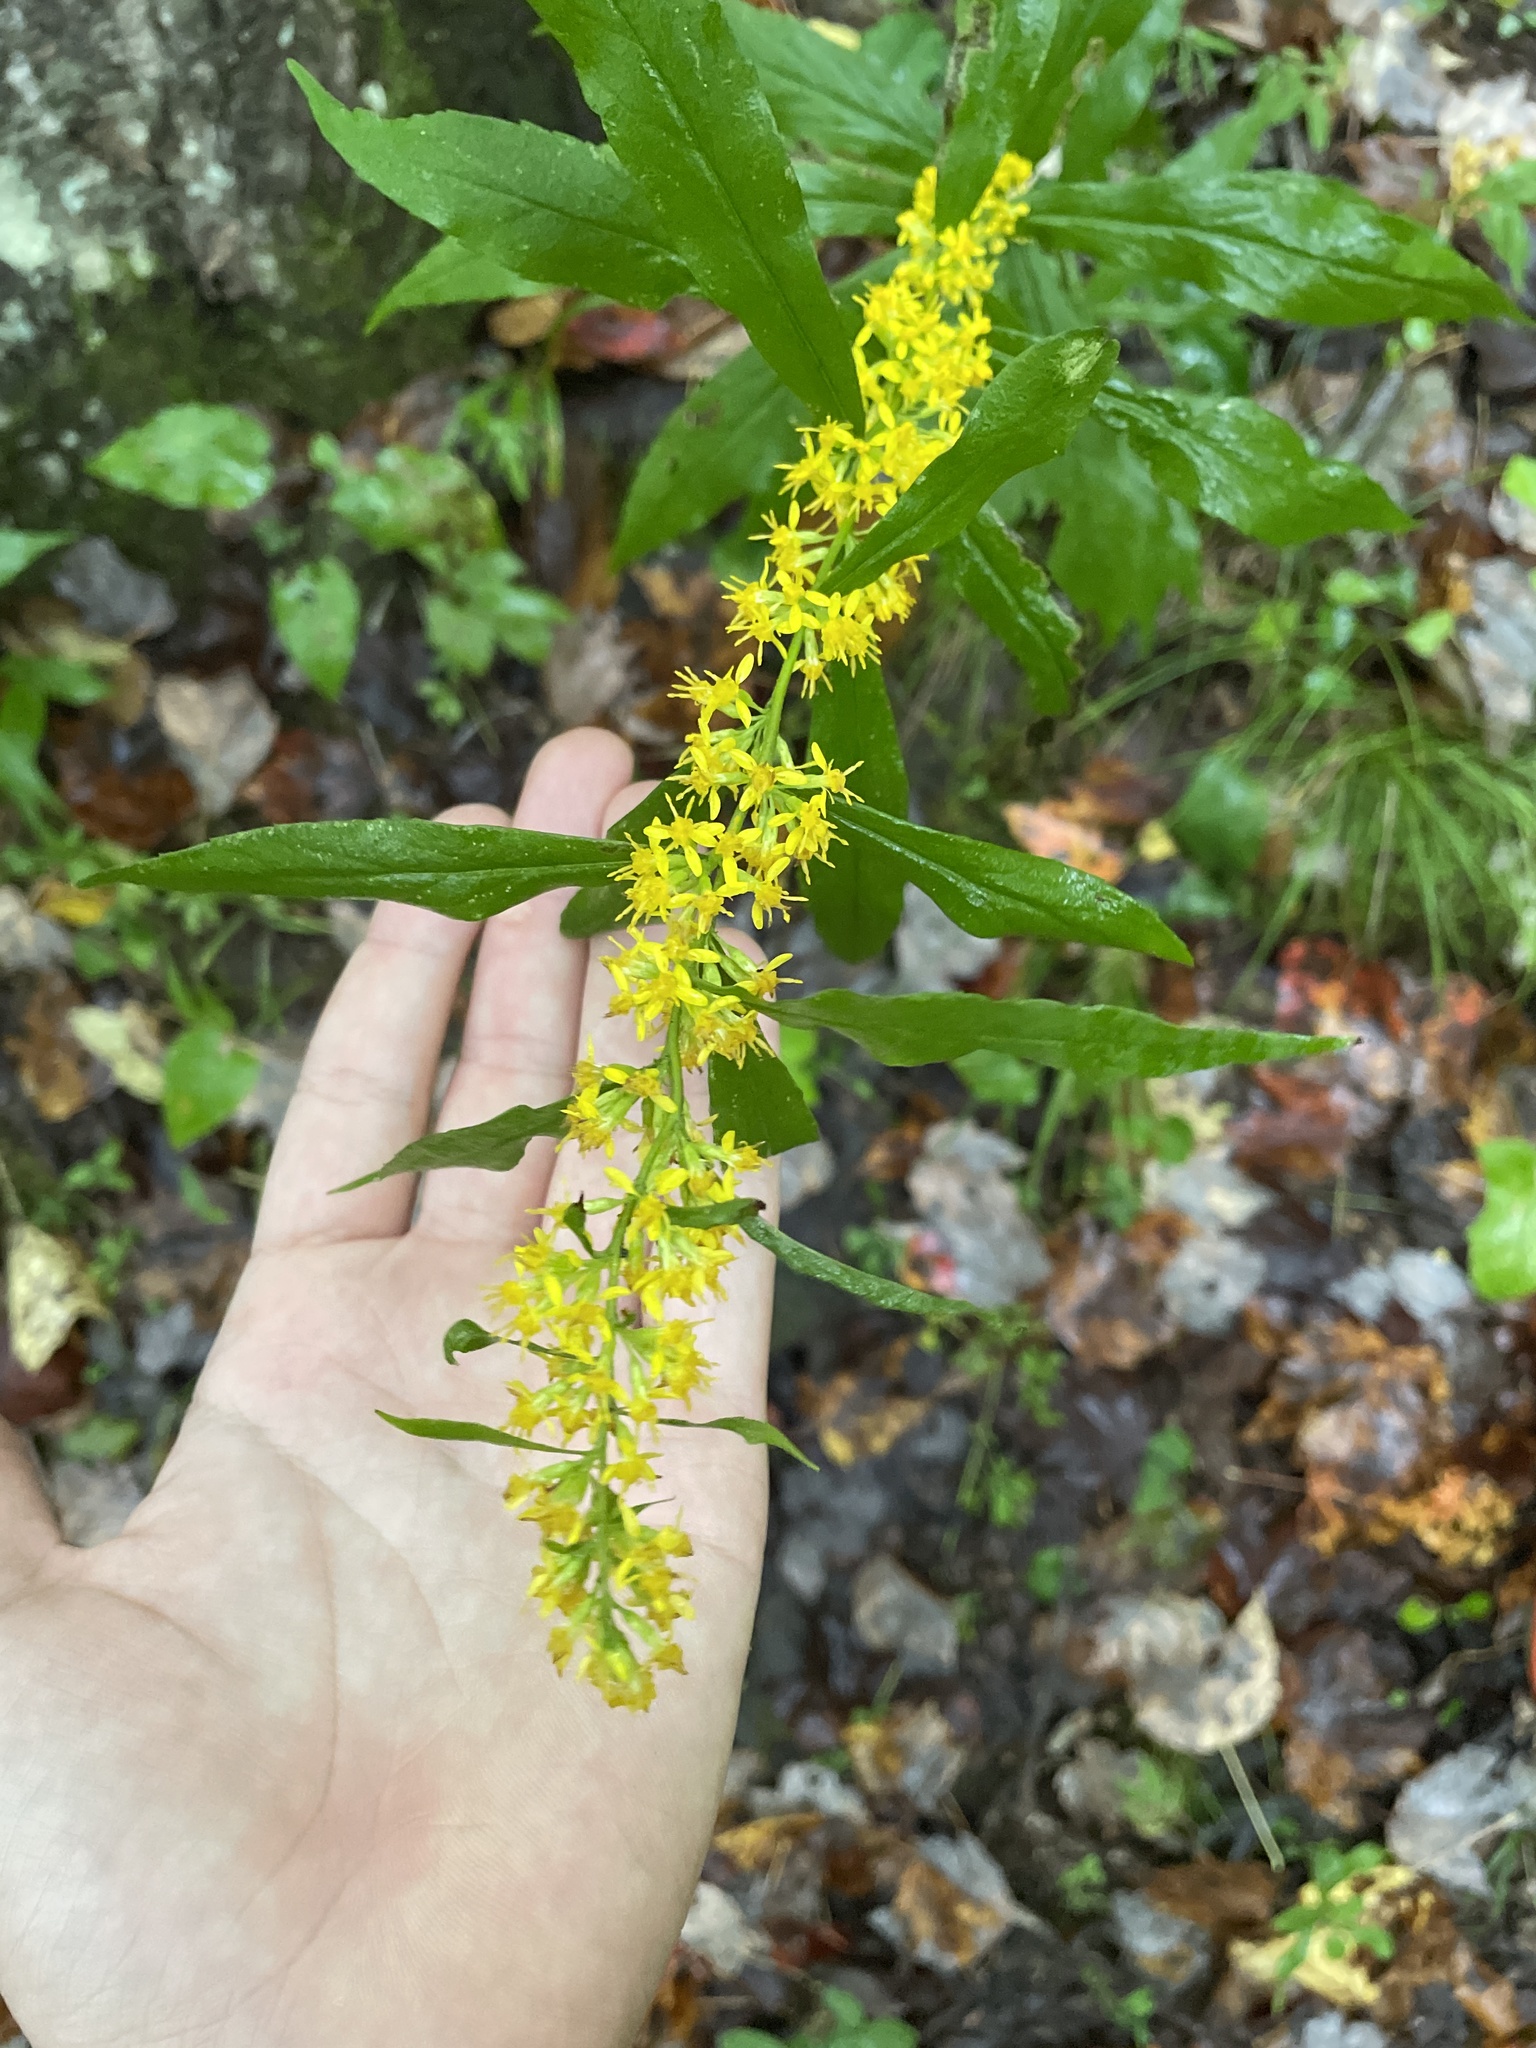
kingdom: Plantae
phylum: Tracheophyta
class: Magnoliopsida
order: Asterales
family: Asteraceae
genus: Solidago
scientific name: Solidago caesia
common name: Woodland goldenrod
